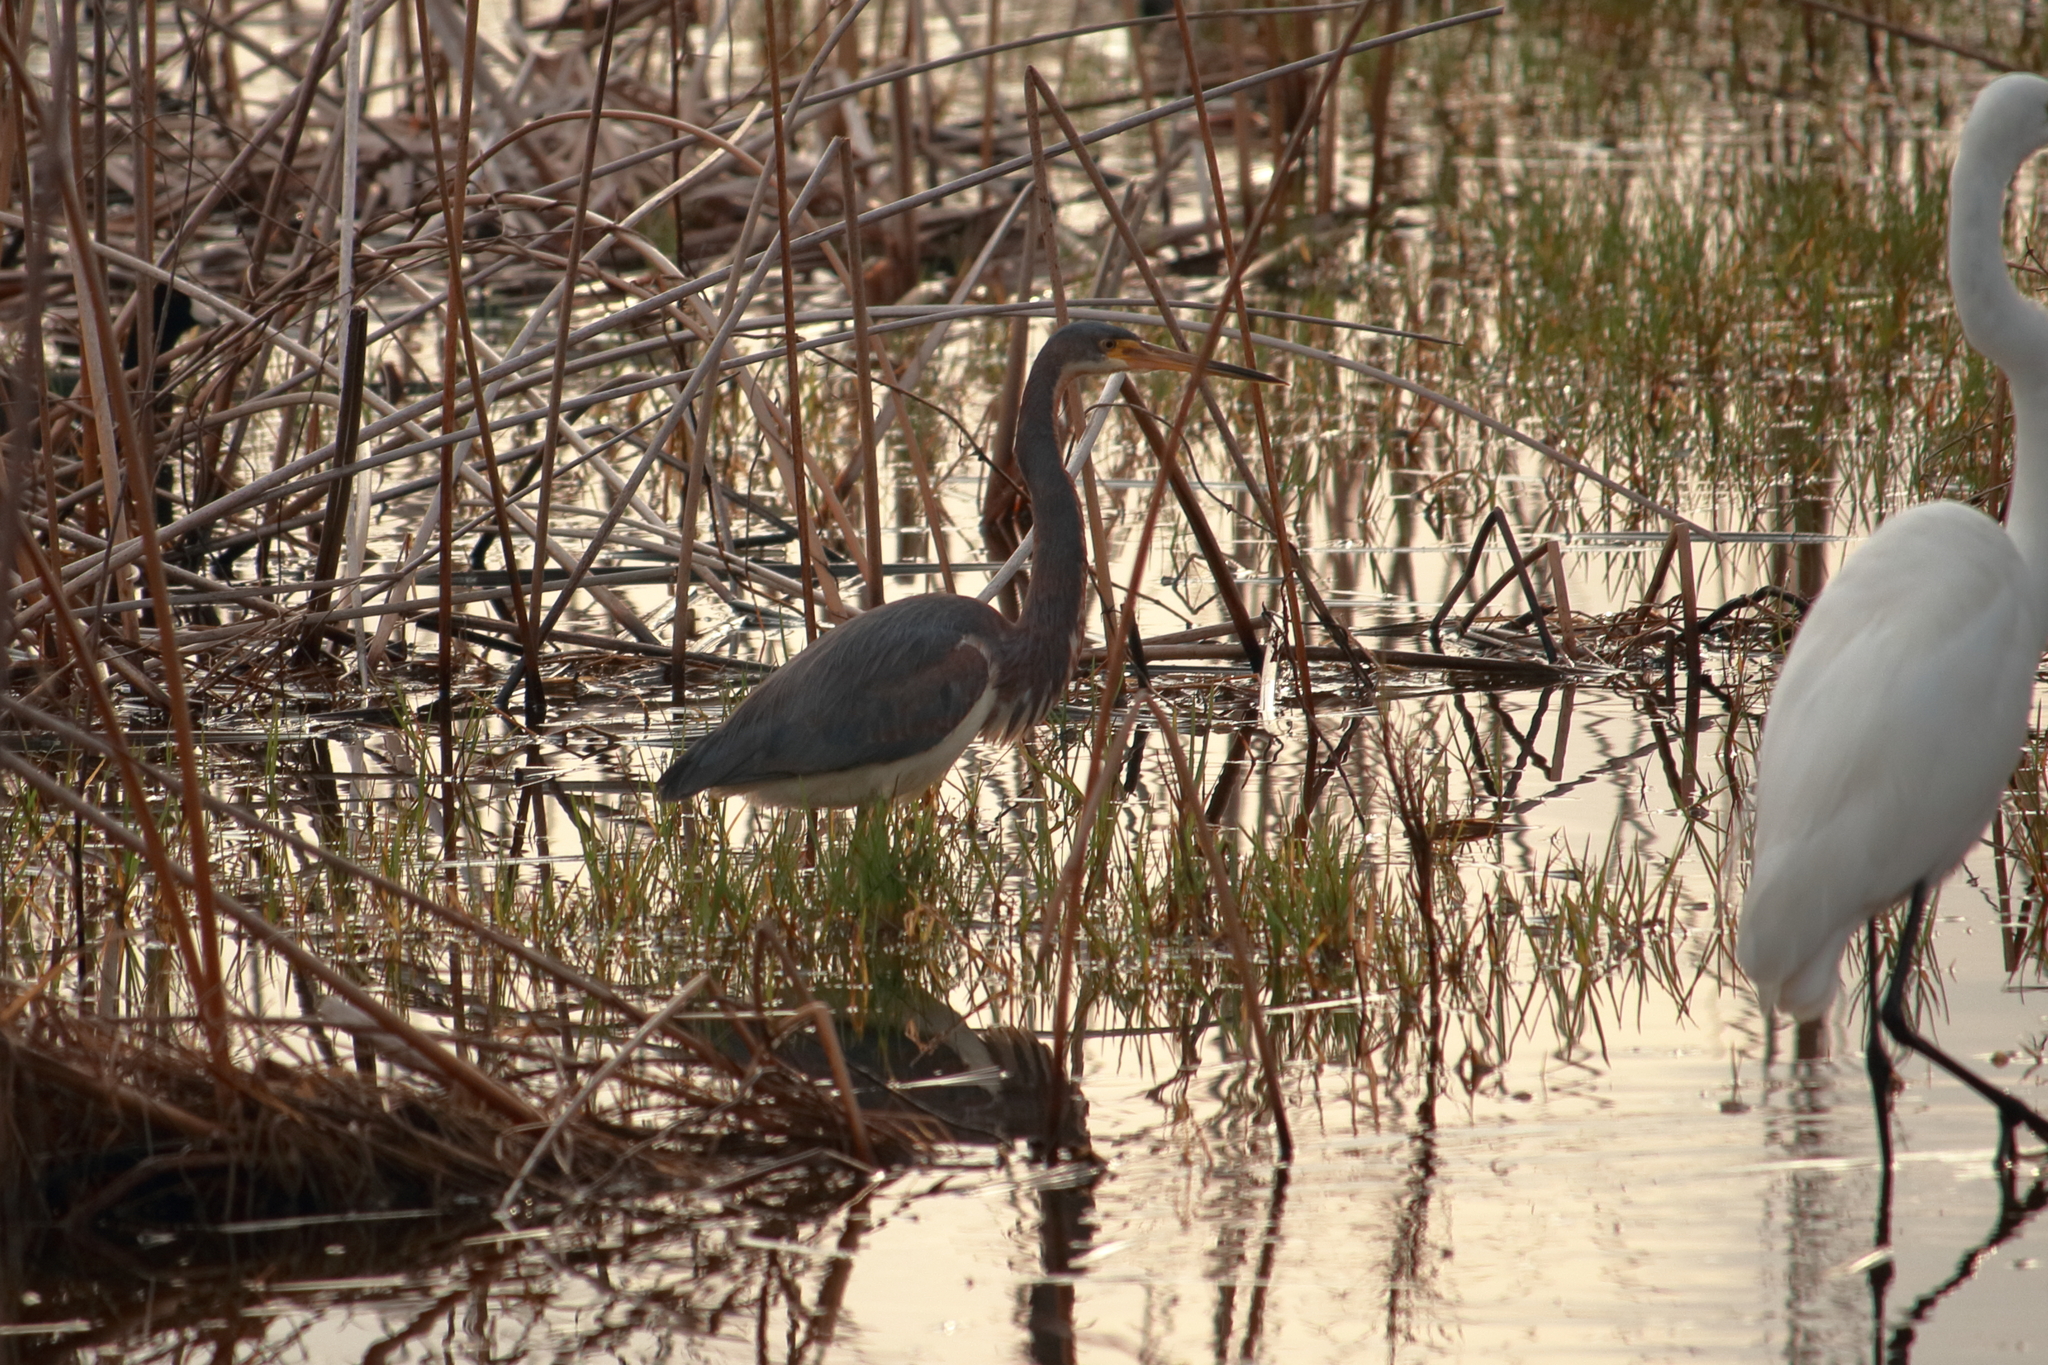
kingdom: Animalia
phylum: Chordata
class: Aves
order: Pelecaniformes
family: Ardeidae
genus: Egretta
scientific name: Egretta tricolor
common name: Tricolored heron
